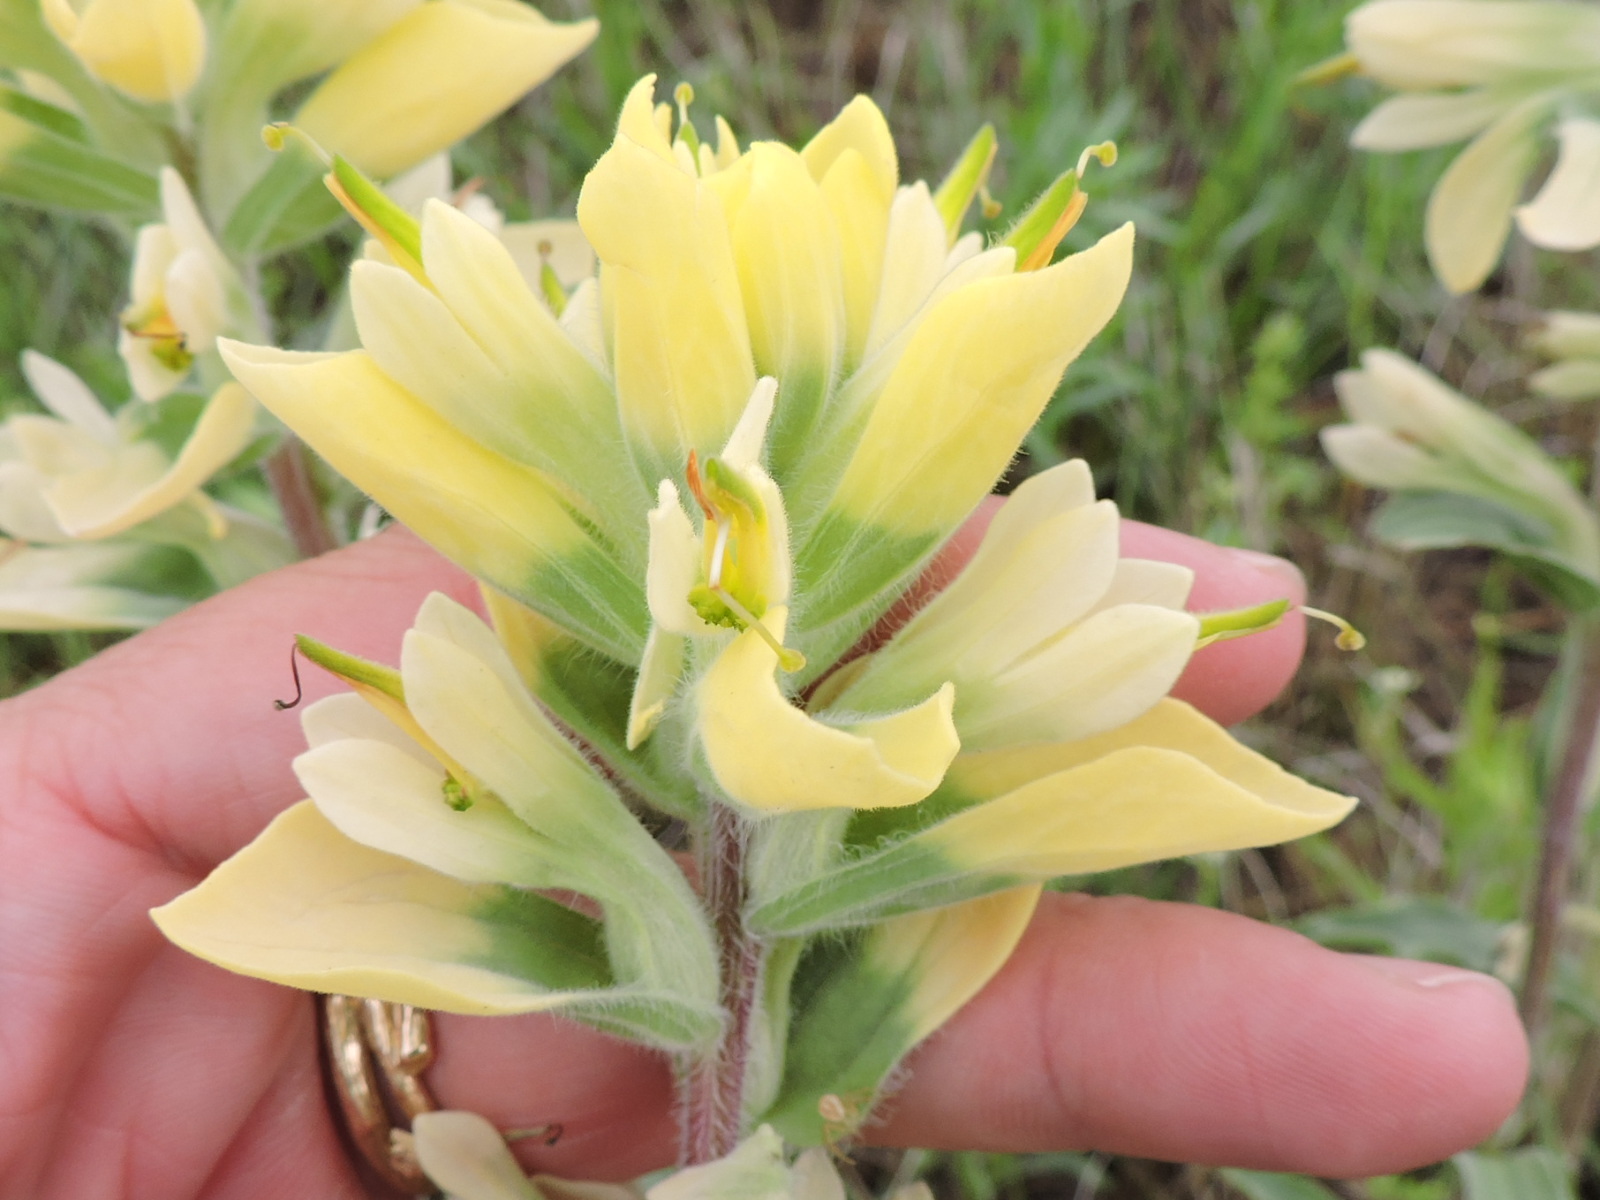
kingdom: Plantae
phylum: Tracheophyta
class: Magnoliopsida
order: Lamiales
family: Orobanchaceae
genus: Castilleja
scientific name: Castilleja citrina
